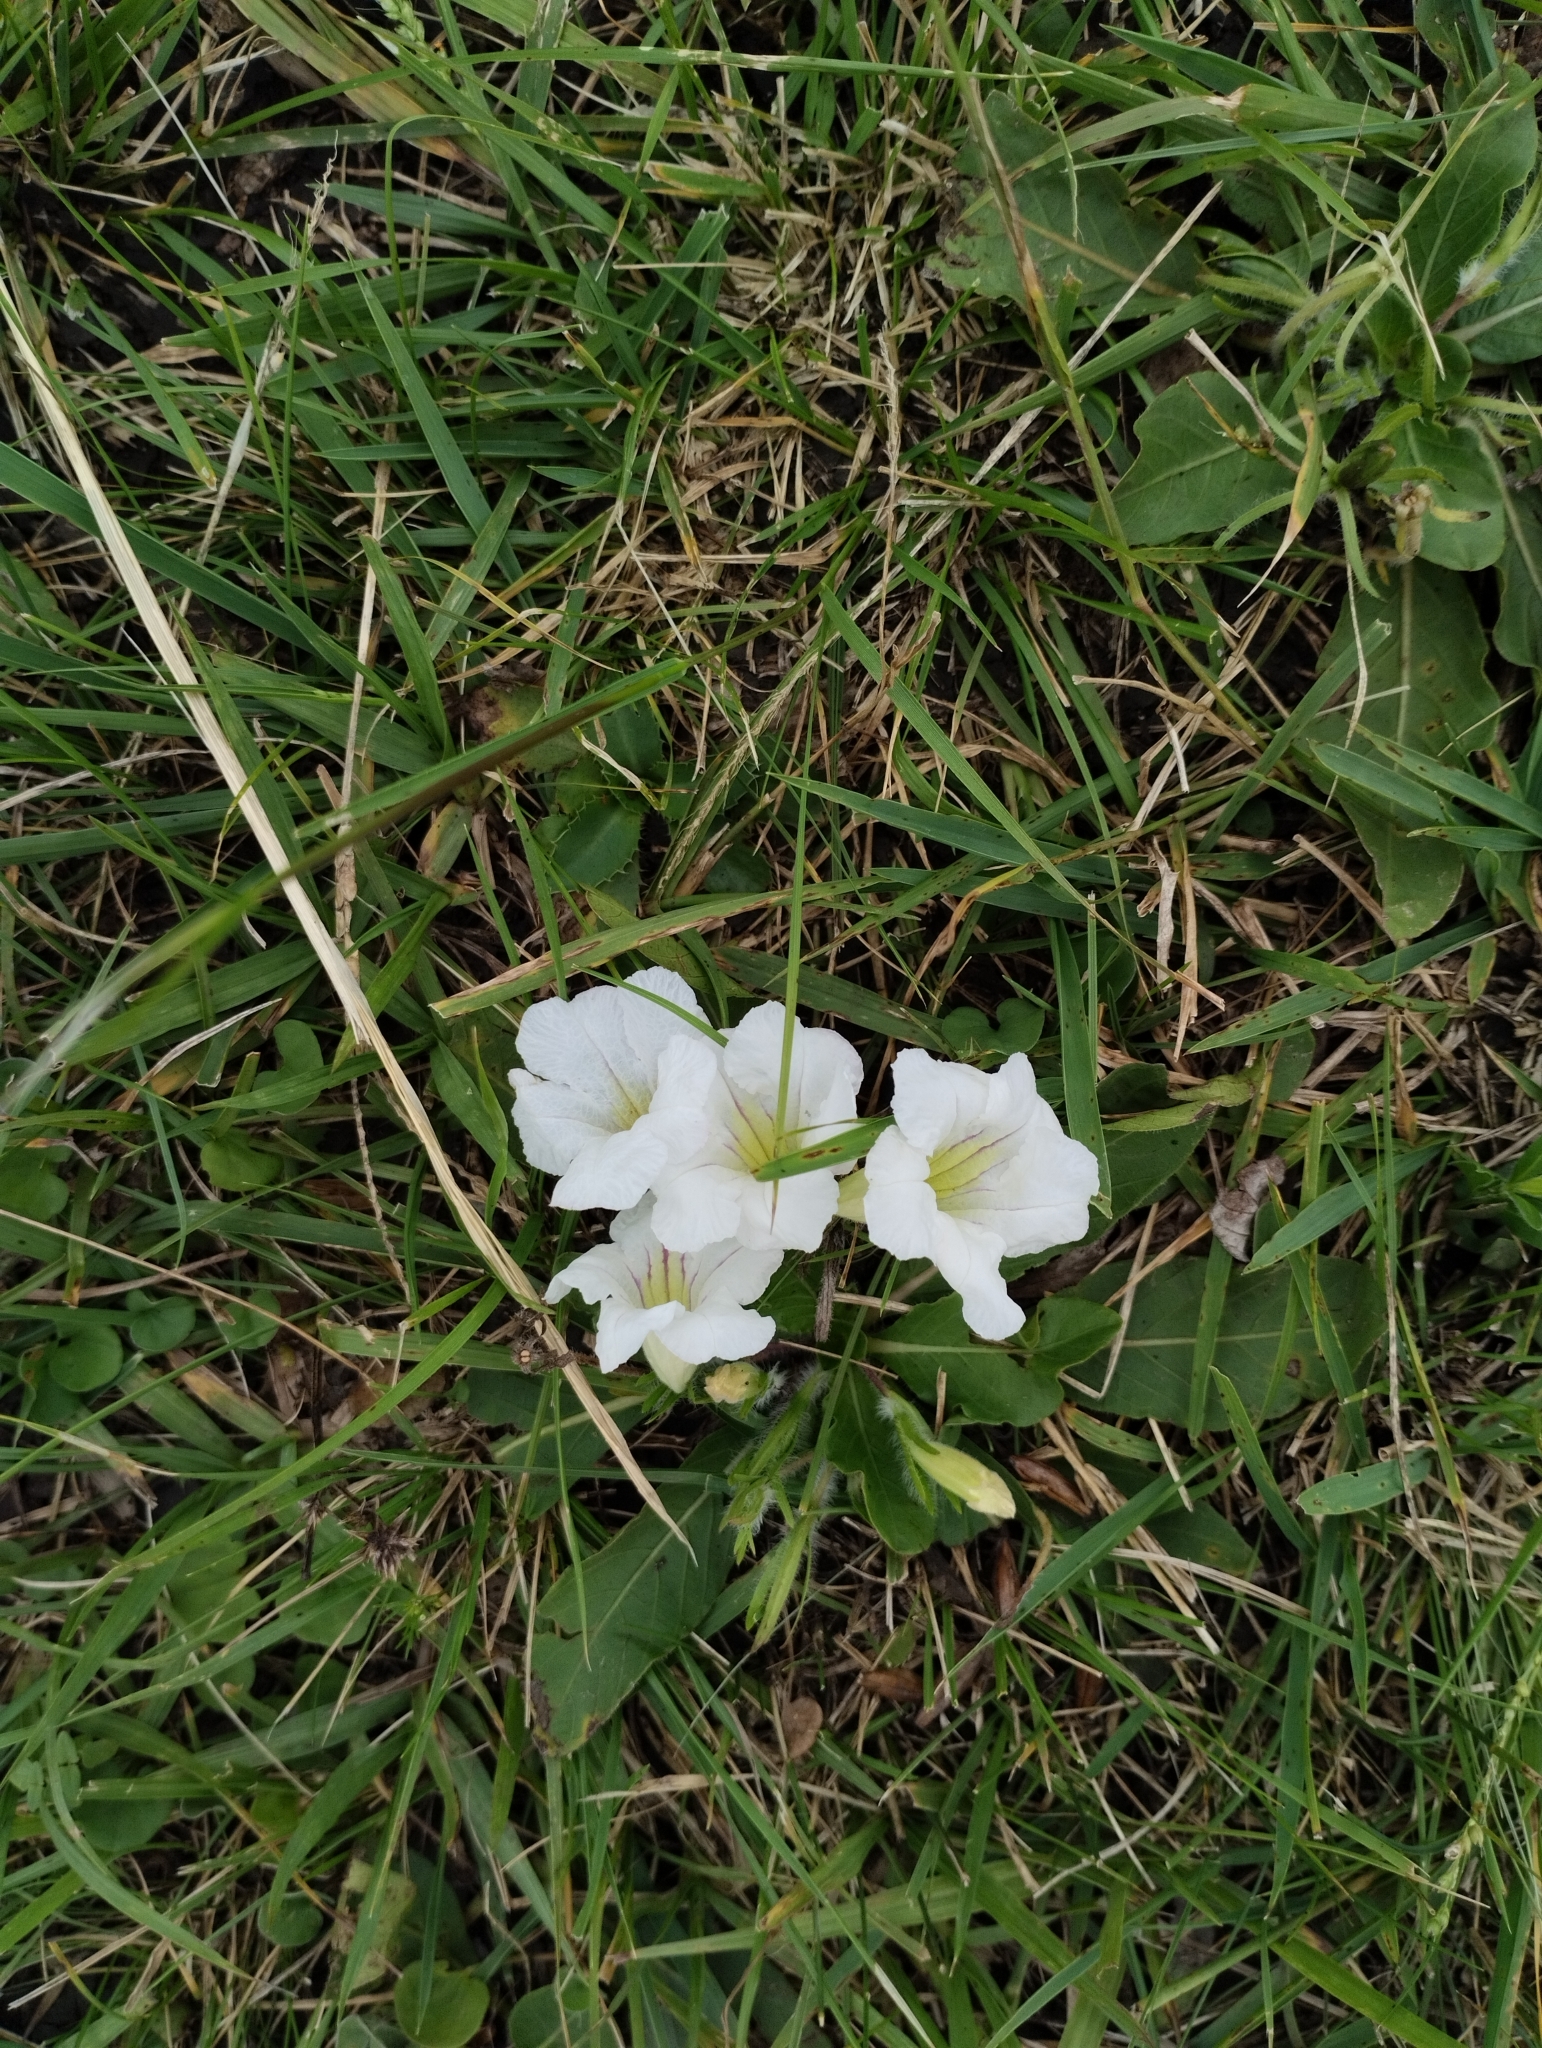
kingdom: Plantae
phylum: Tracheophyta
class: Magnoliopsida
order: Lamiales
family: Acanthaceae
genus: Ruellia
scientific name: Ruellia morongii
